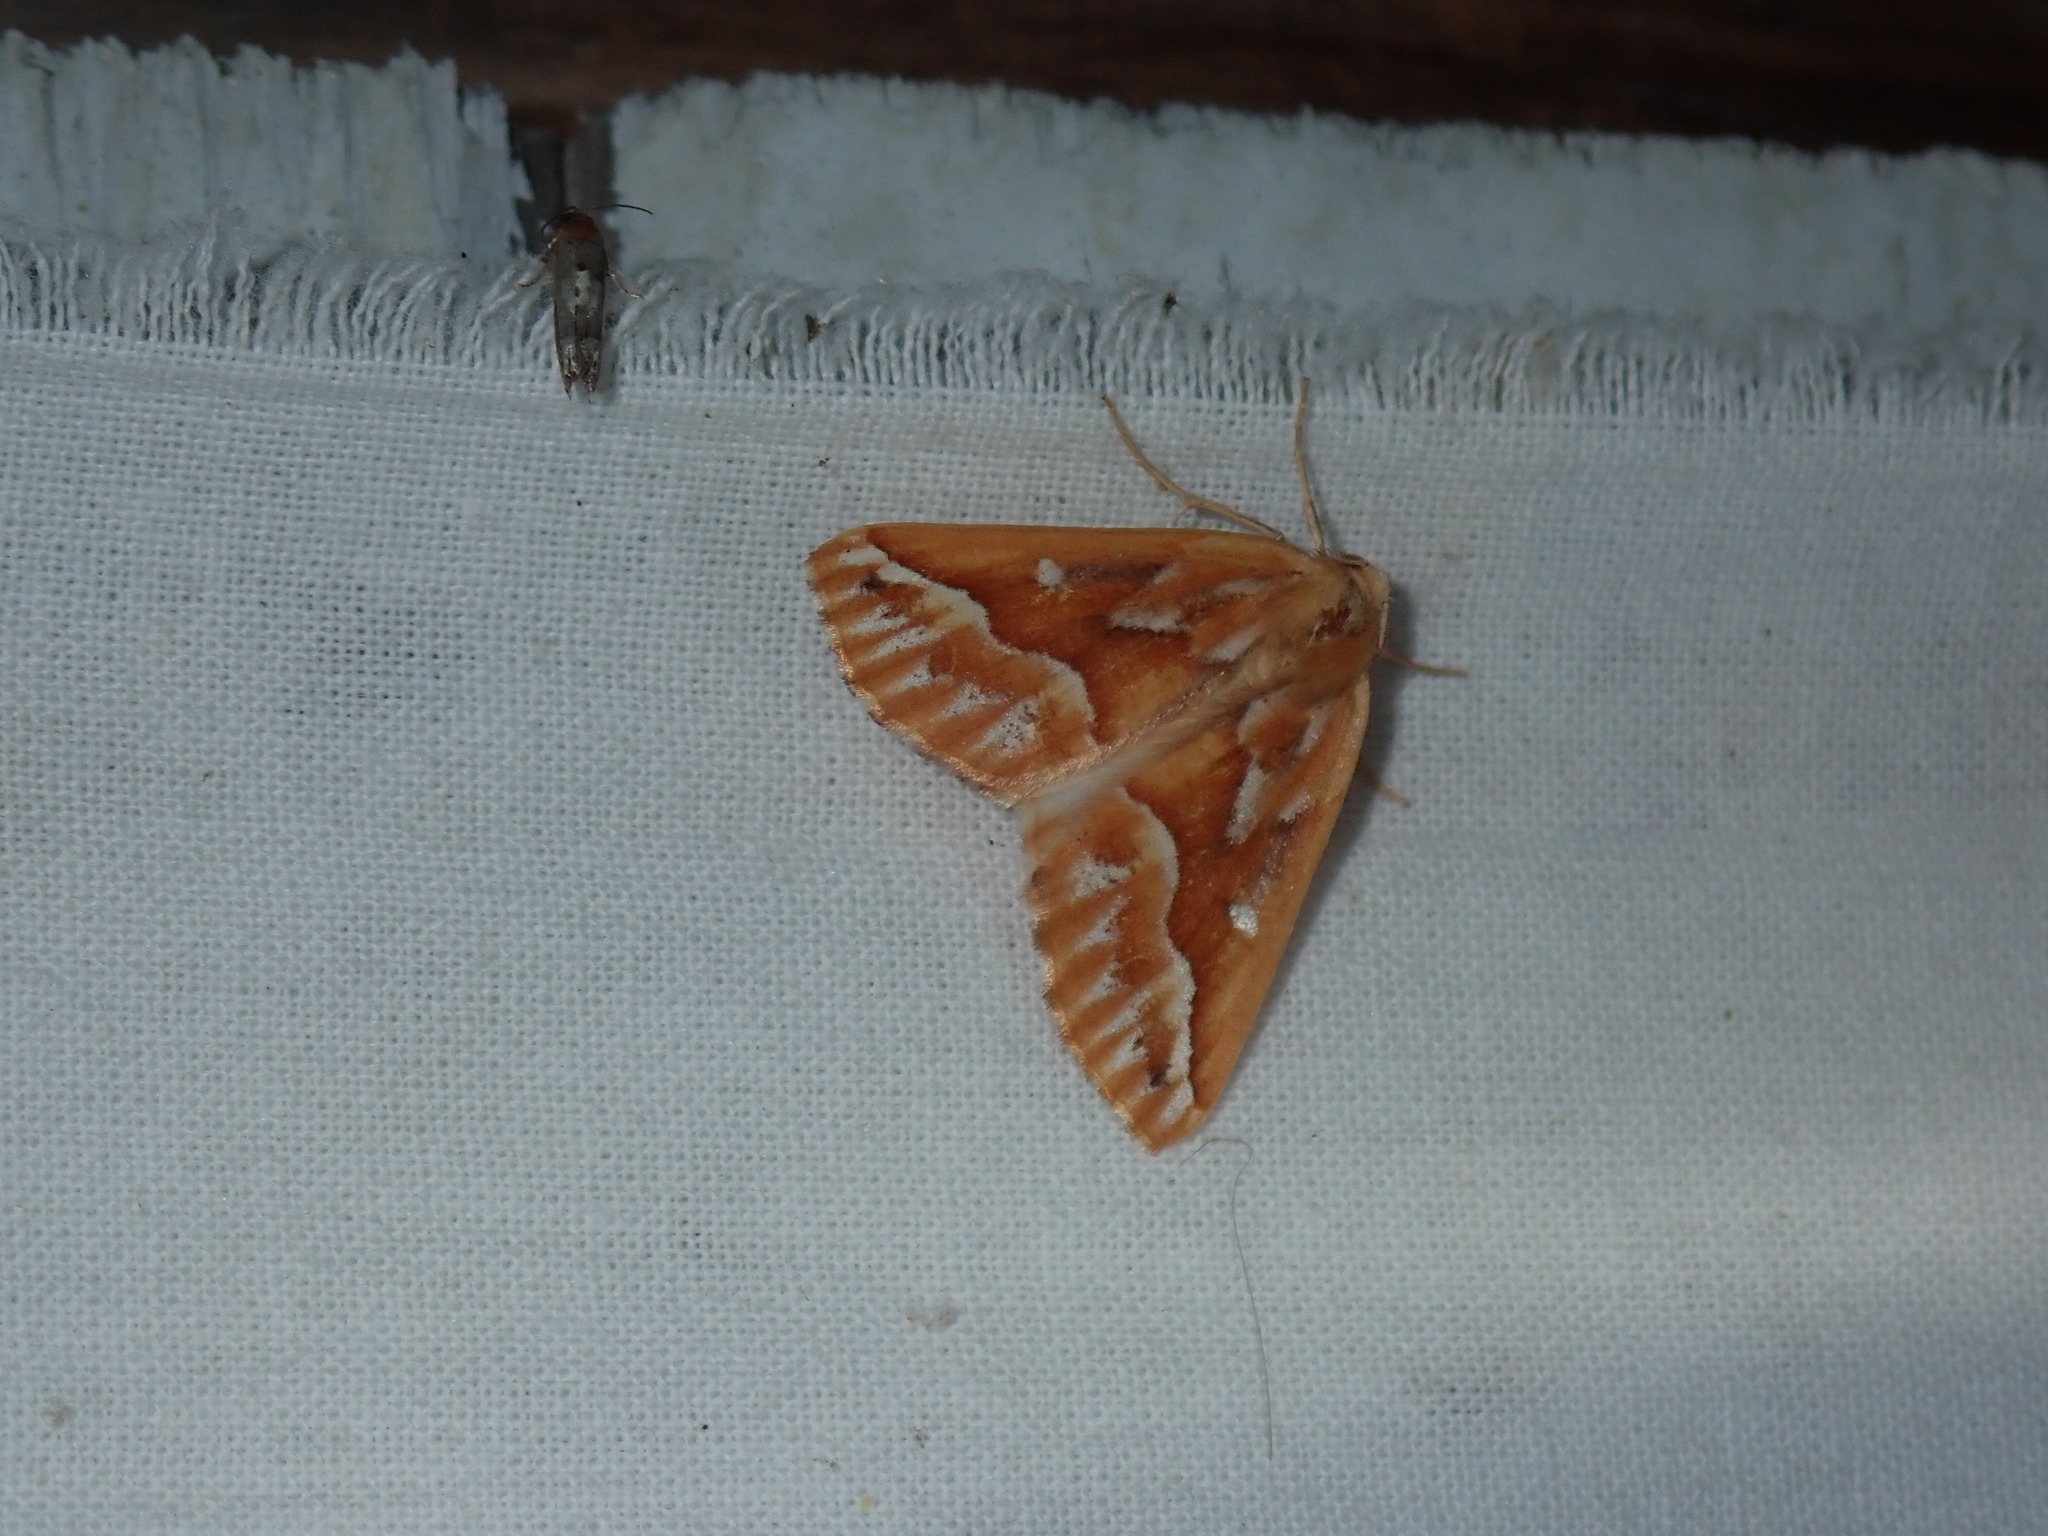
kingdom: Animalia
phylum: Arthropoda
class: Insecta
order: Lepidoptera
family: Geometridae
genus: Caripeta
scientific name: Caripeta piniata
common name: Northern pine looper moth
